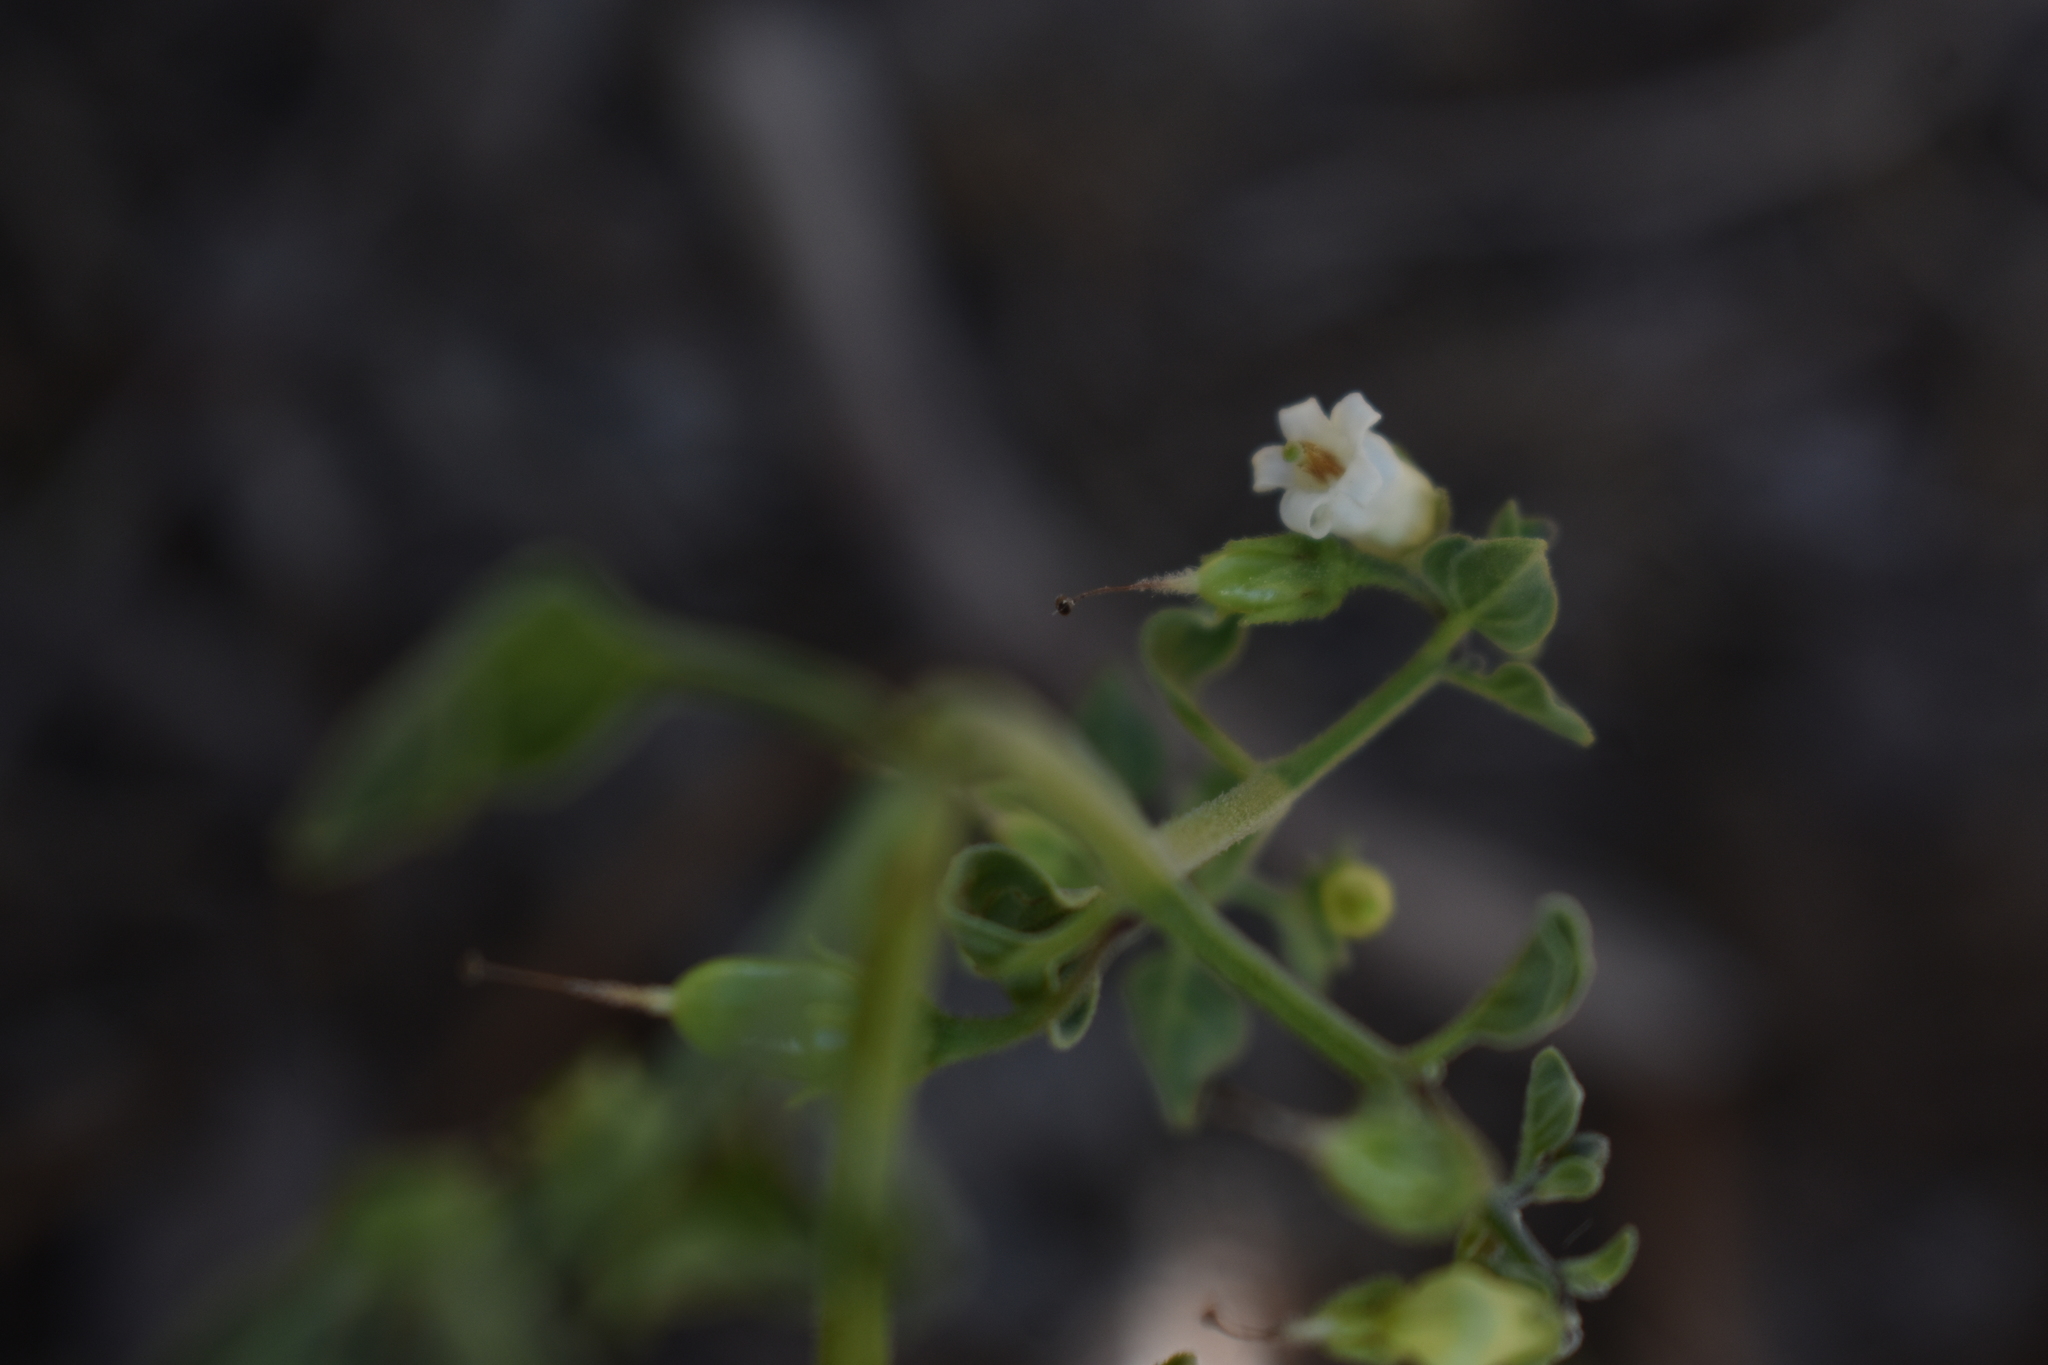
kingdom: Plantae
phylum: Tracheophyta
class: Magnoliopsida
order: Solanales
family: Solanaceae
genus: Salpichroa
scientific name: Salpichroa origanifolia
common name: Lily-of-the-valley-vine
